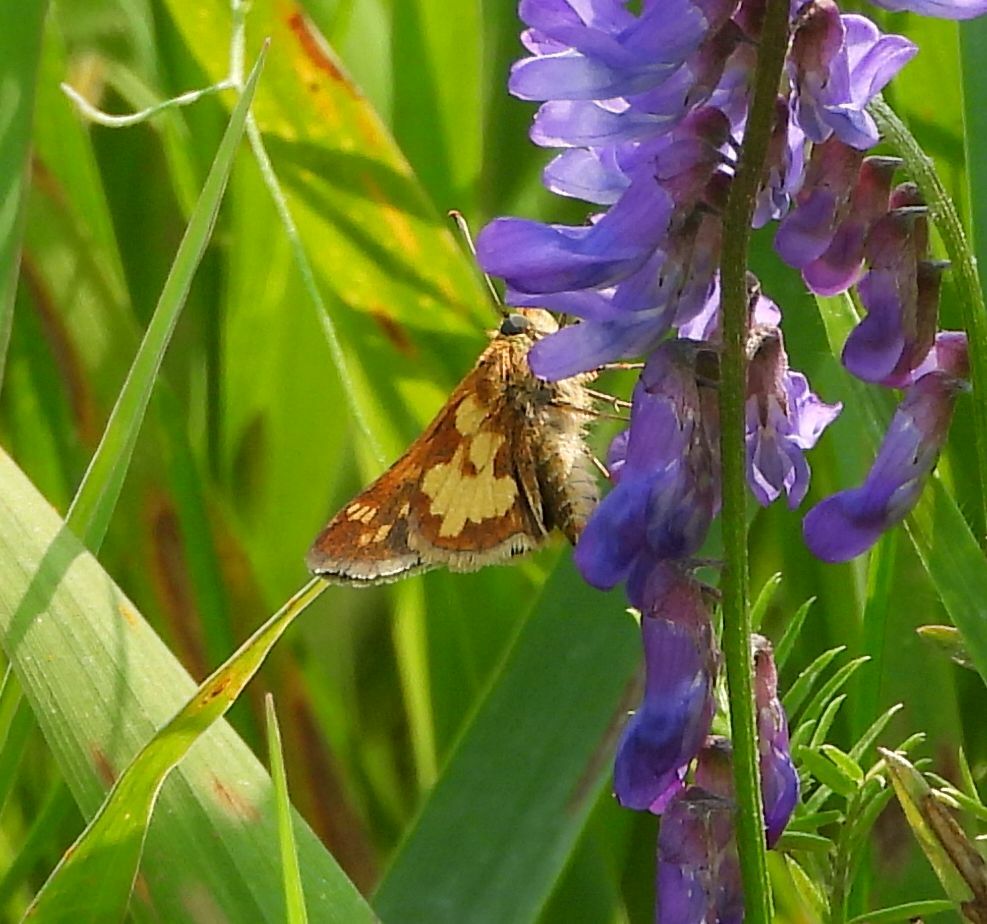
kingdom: Animalia
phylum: Arthropoda
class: Insecta
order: Lepidoptera
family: Hesperiidae
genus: Polites
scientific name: Polites coras
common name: Peck's skipper
